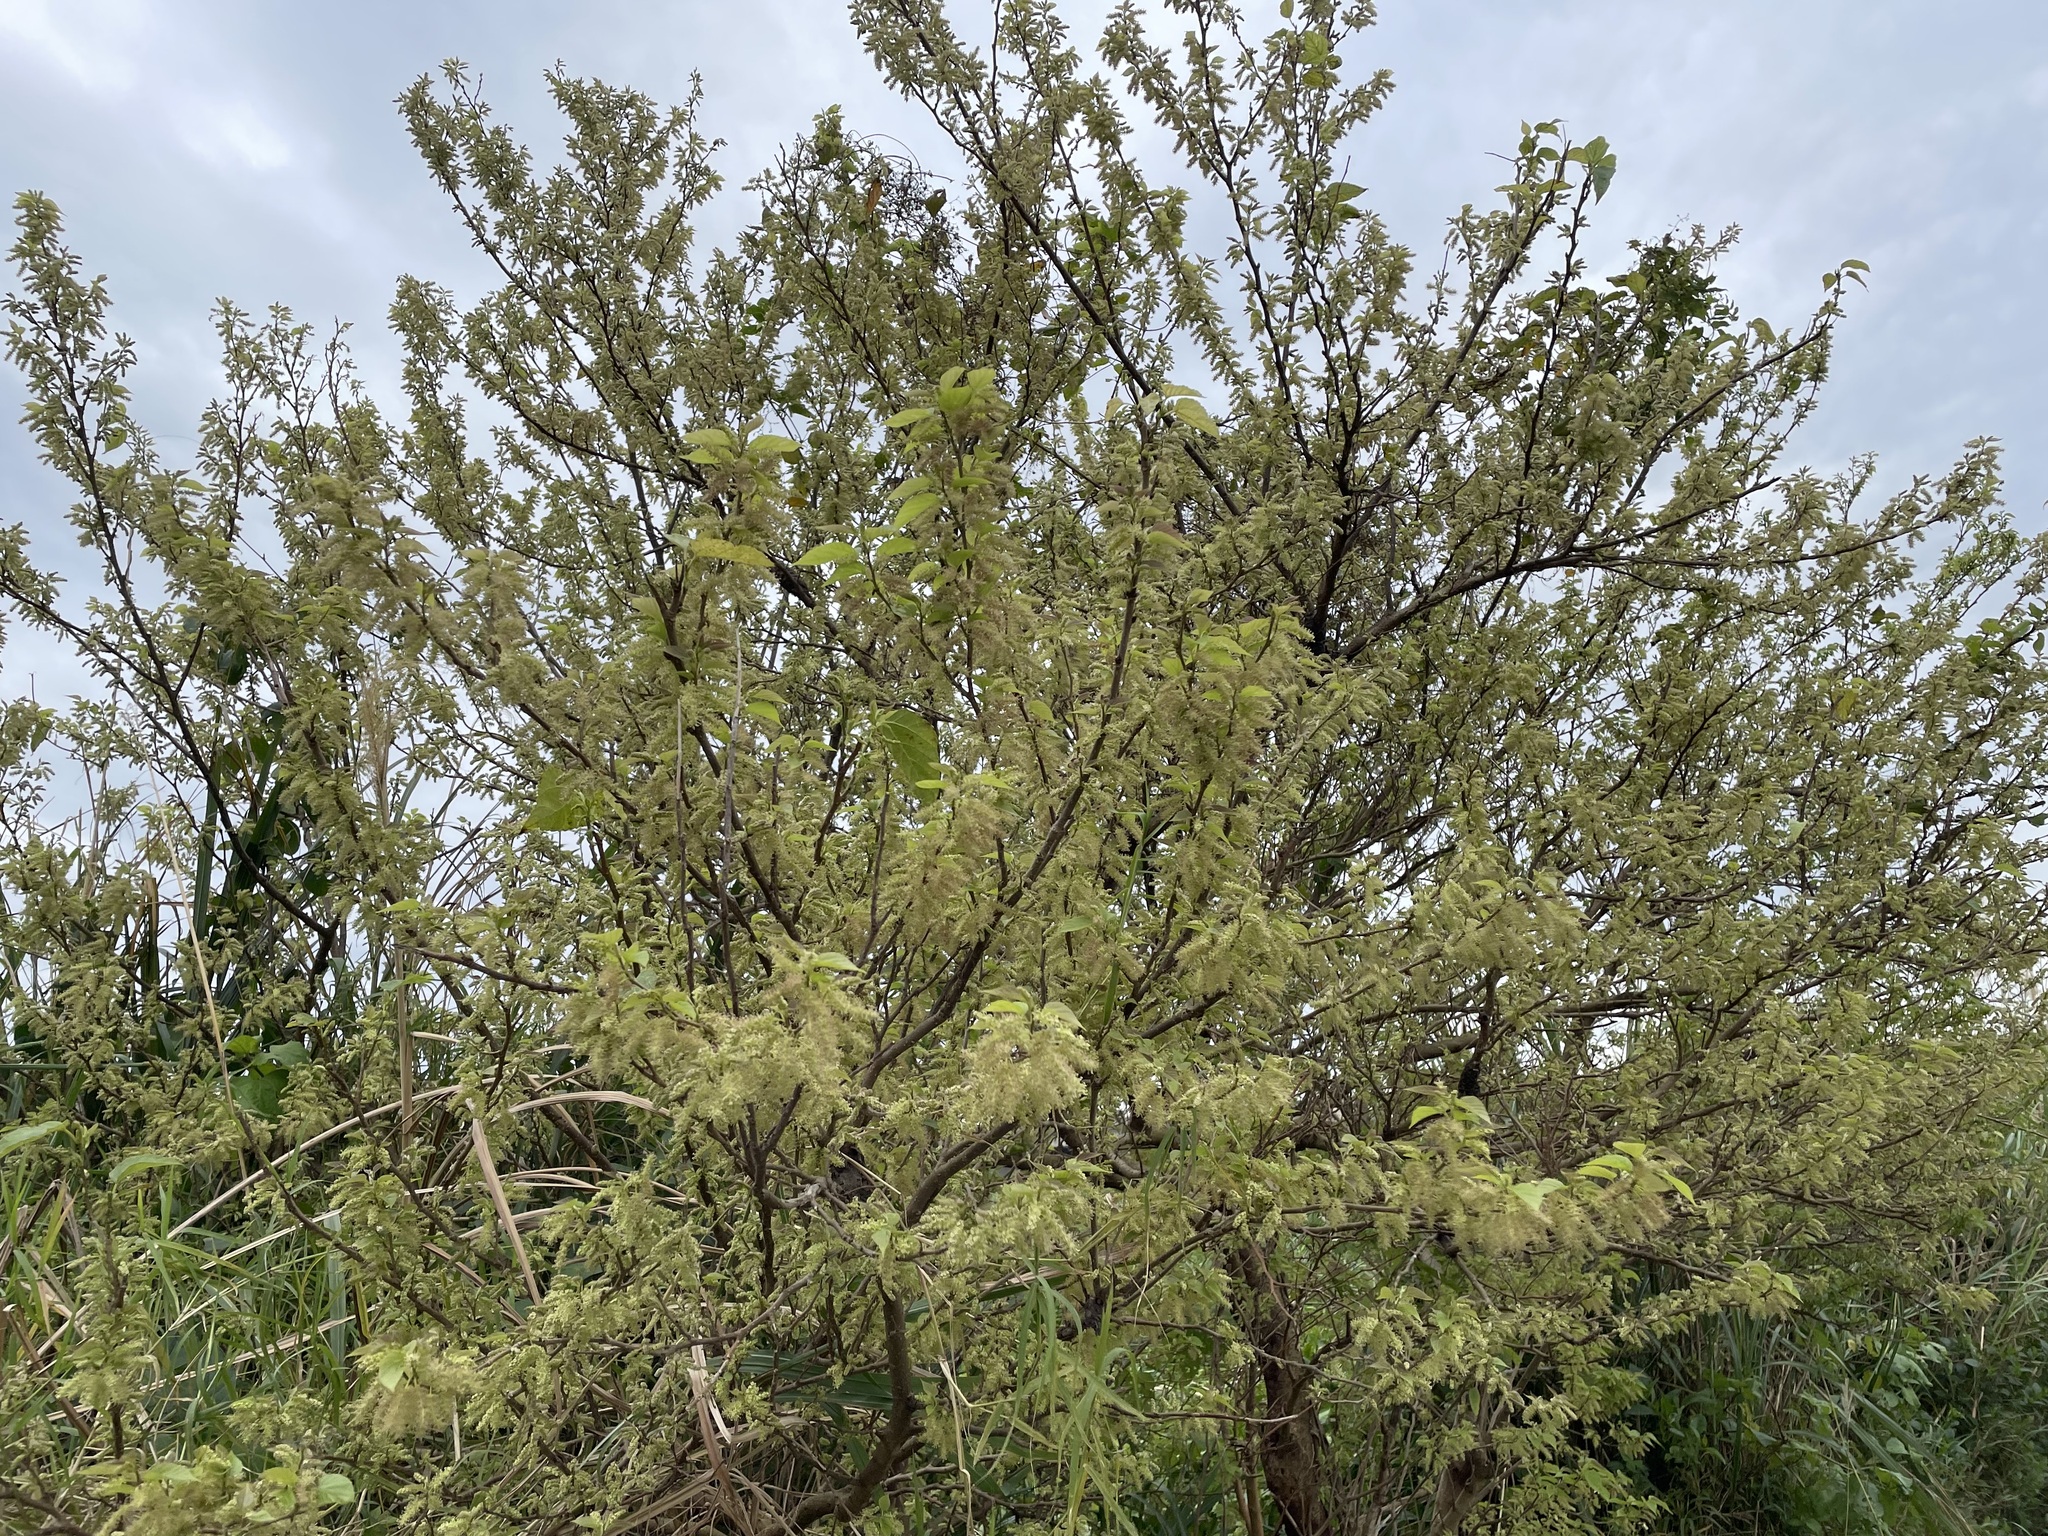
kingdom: Plantae
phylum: Tracheophyta
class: Magnoliopsida
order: Rosales
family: Moraceae
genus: Morus
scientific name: Morus indica
